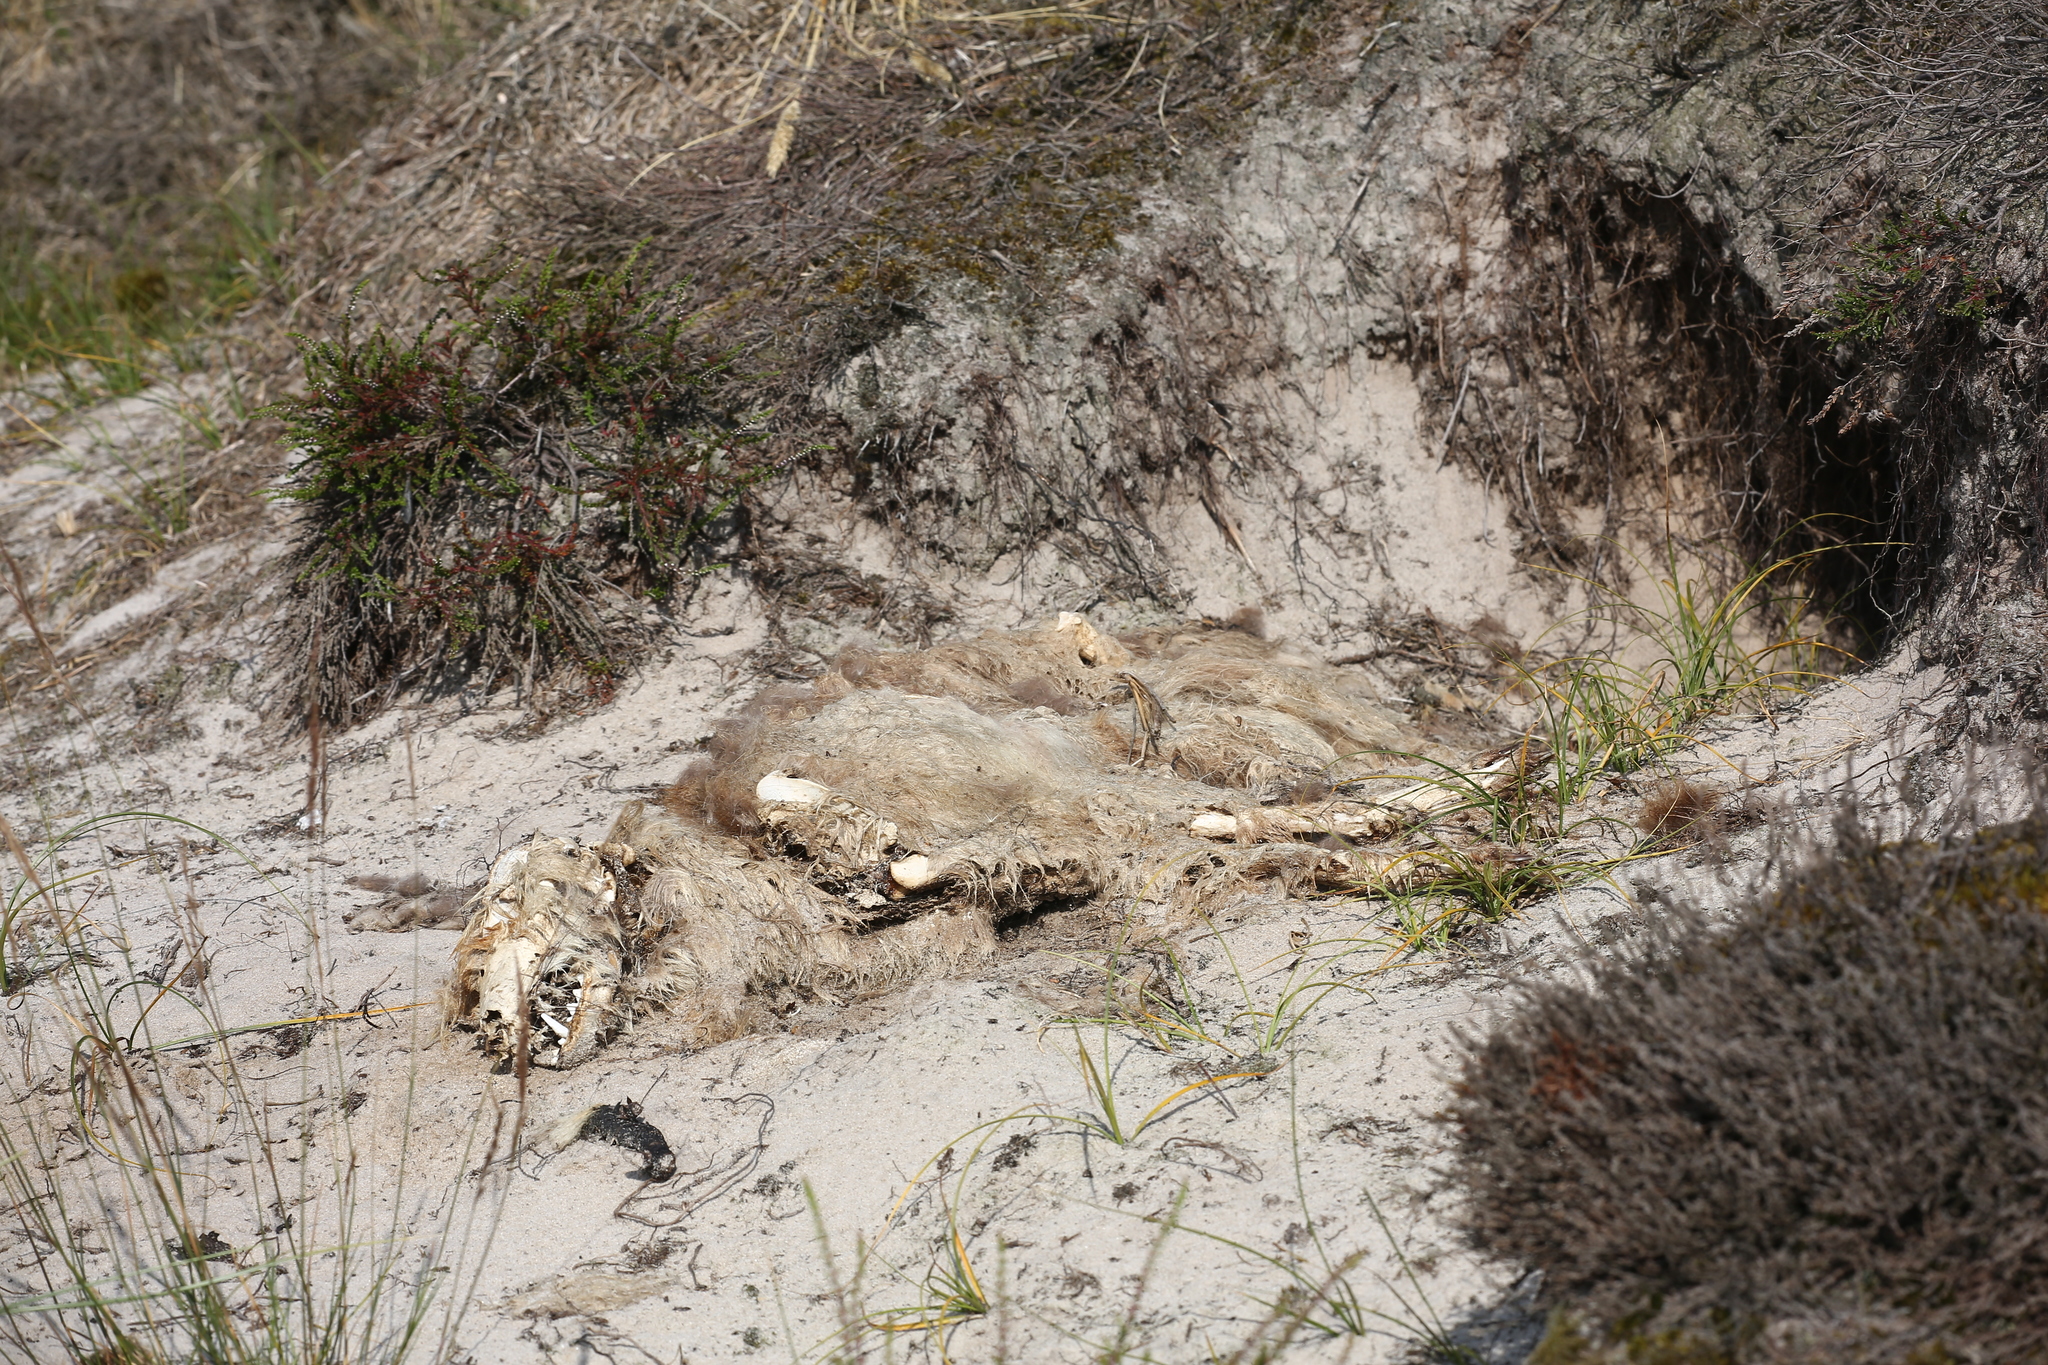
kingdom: Animalia
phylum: Chordata
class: Mammalia
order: Carnivora
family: Canidae
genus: Vulpes
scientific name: Vulpes vulpes
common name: Red fox
